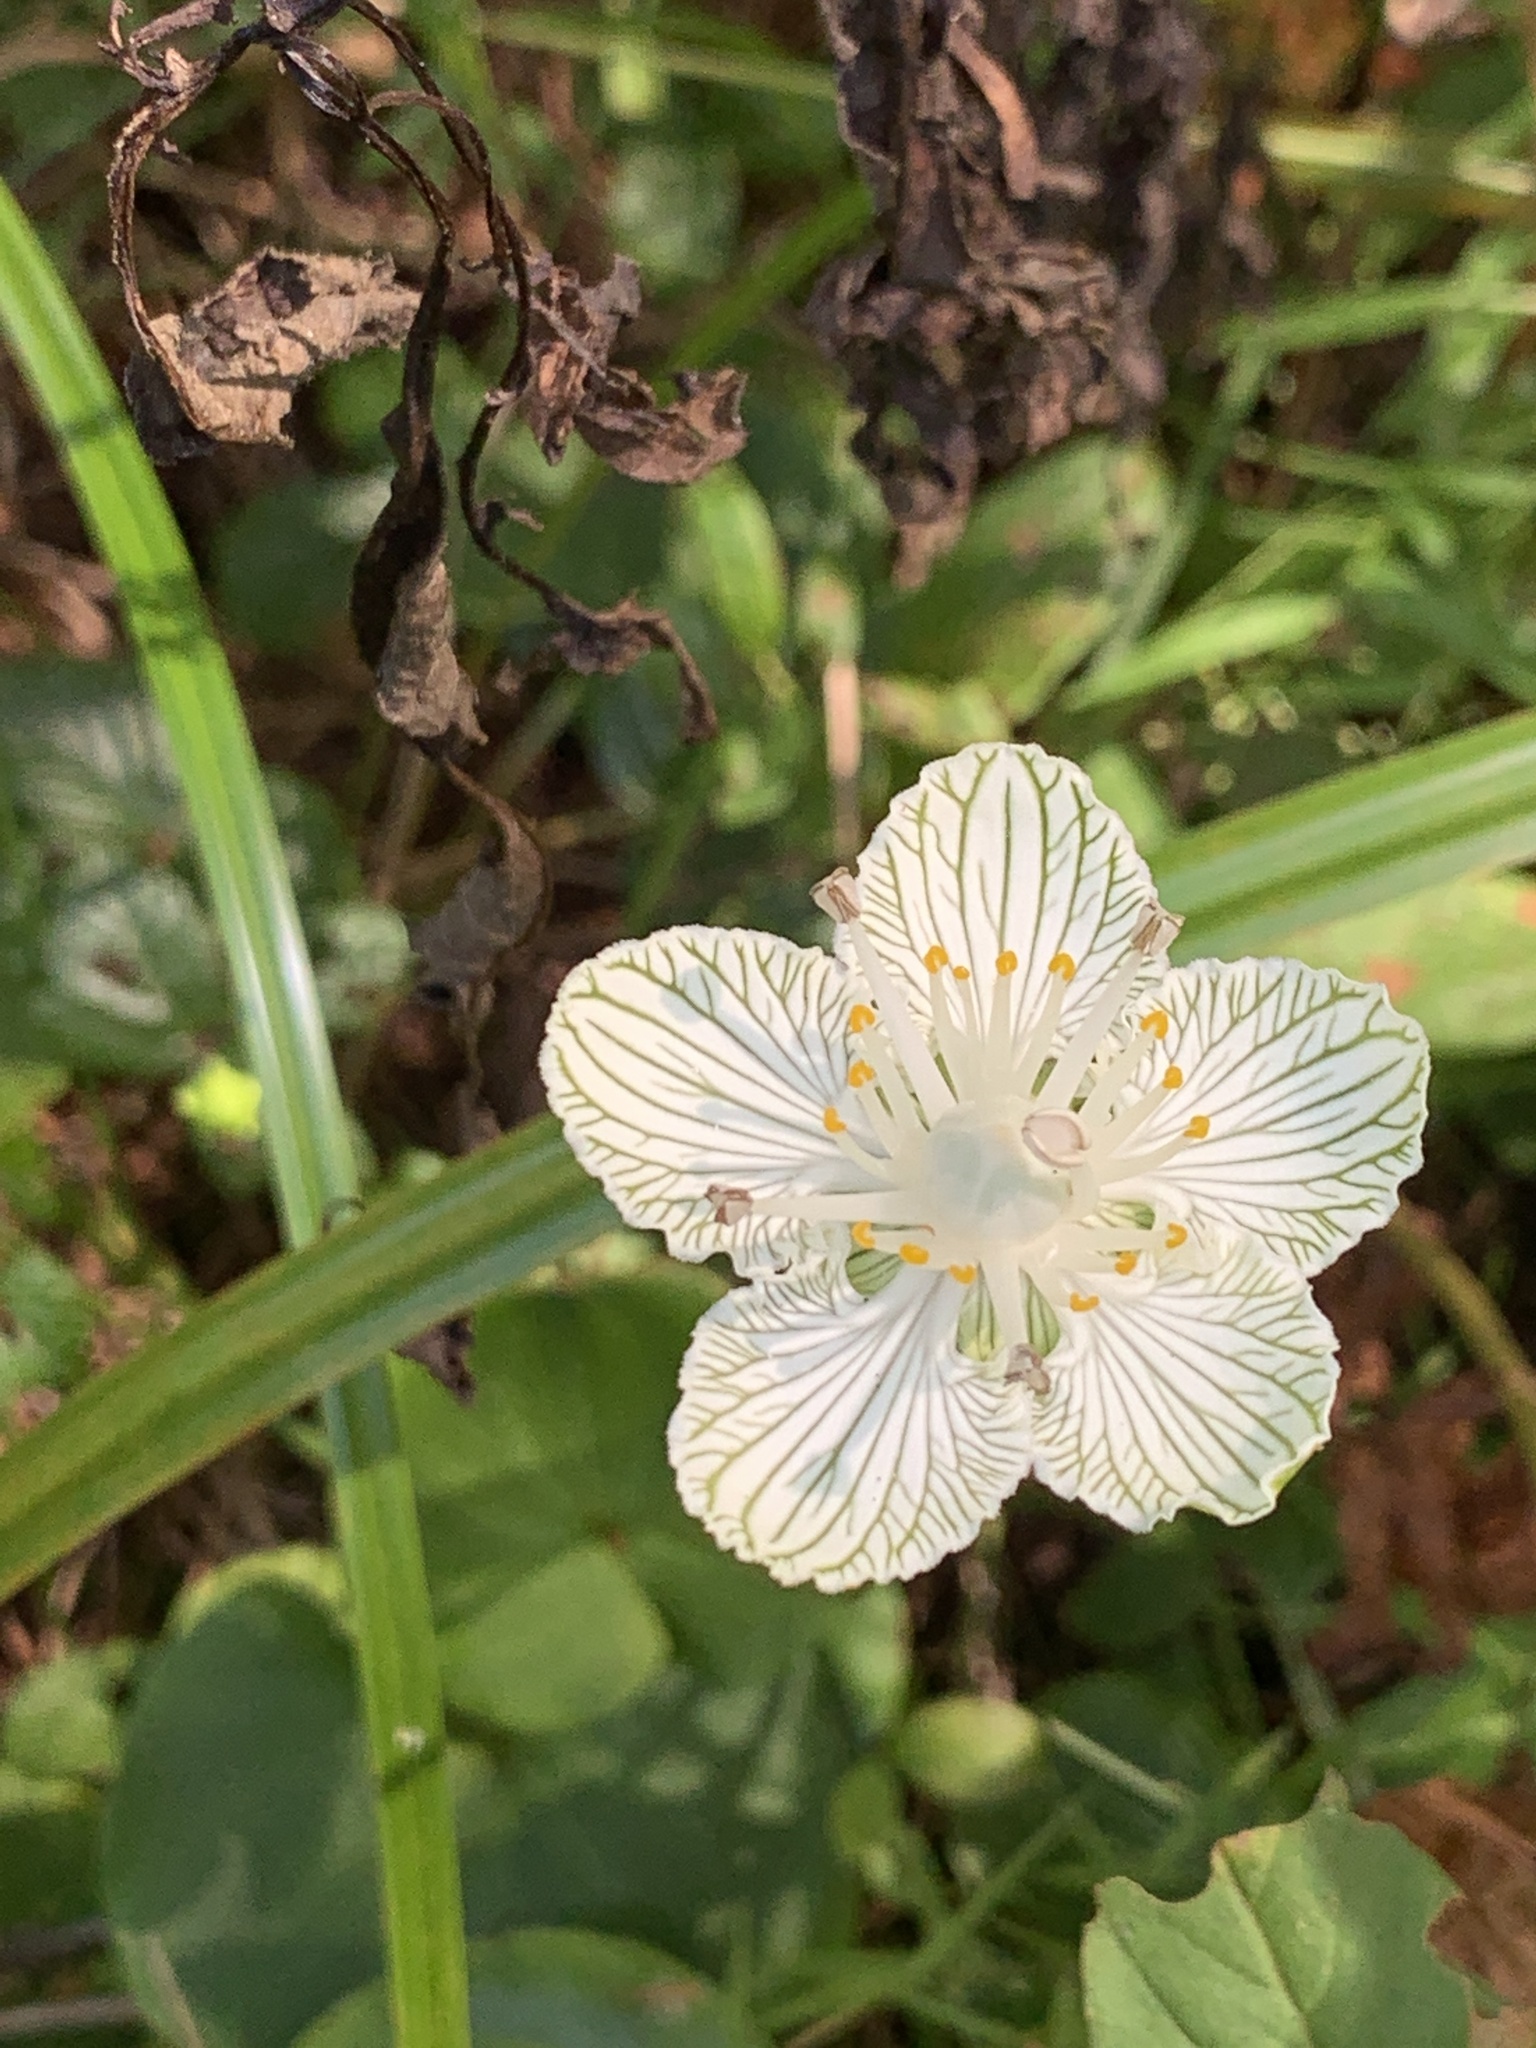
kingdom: Plantae
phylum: Tracheophyta
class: Magnoliopsida
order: Celastrales
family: Parnassiaceae
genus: Parnassia
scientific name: Parnassia asarifolia
